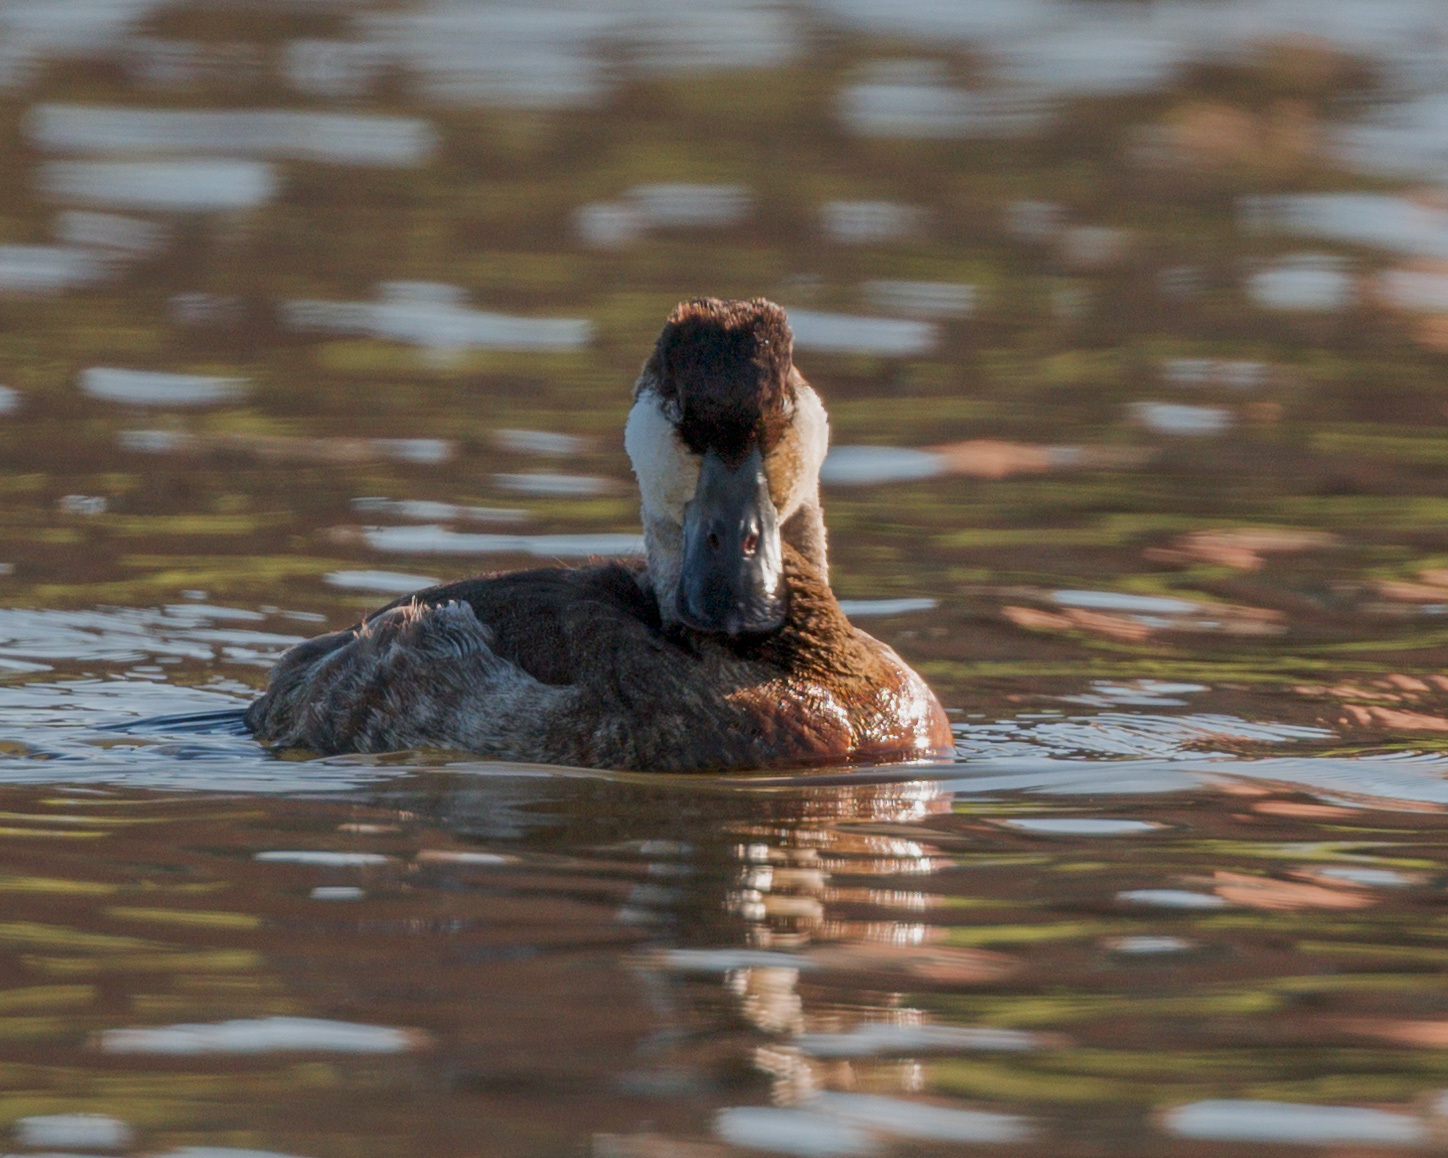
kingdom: Animalia
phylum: Chordata
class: Aves
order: Anseriformes
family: Anatidae
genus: Oxyura
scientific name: Oxyura jamaicensis
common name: Ruddy duck
